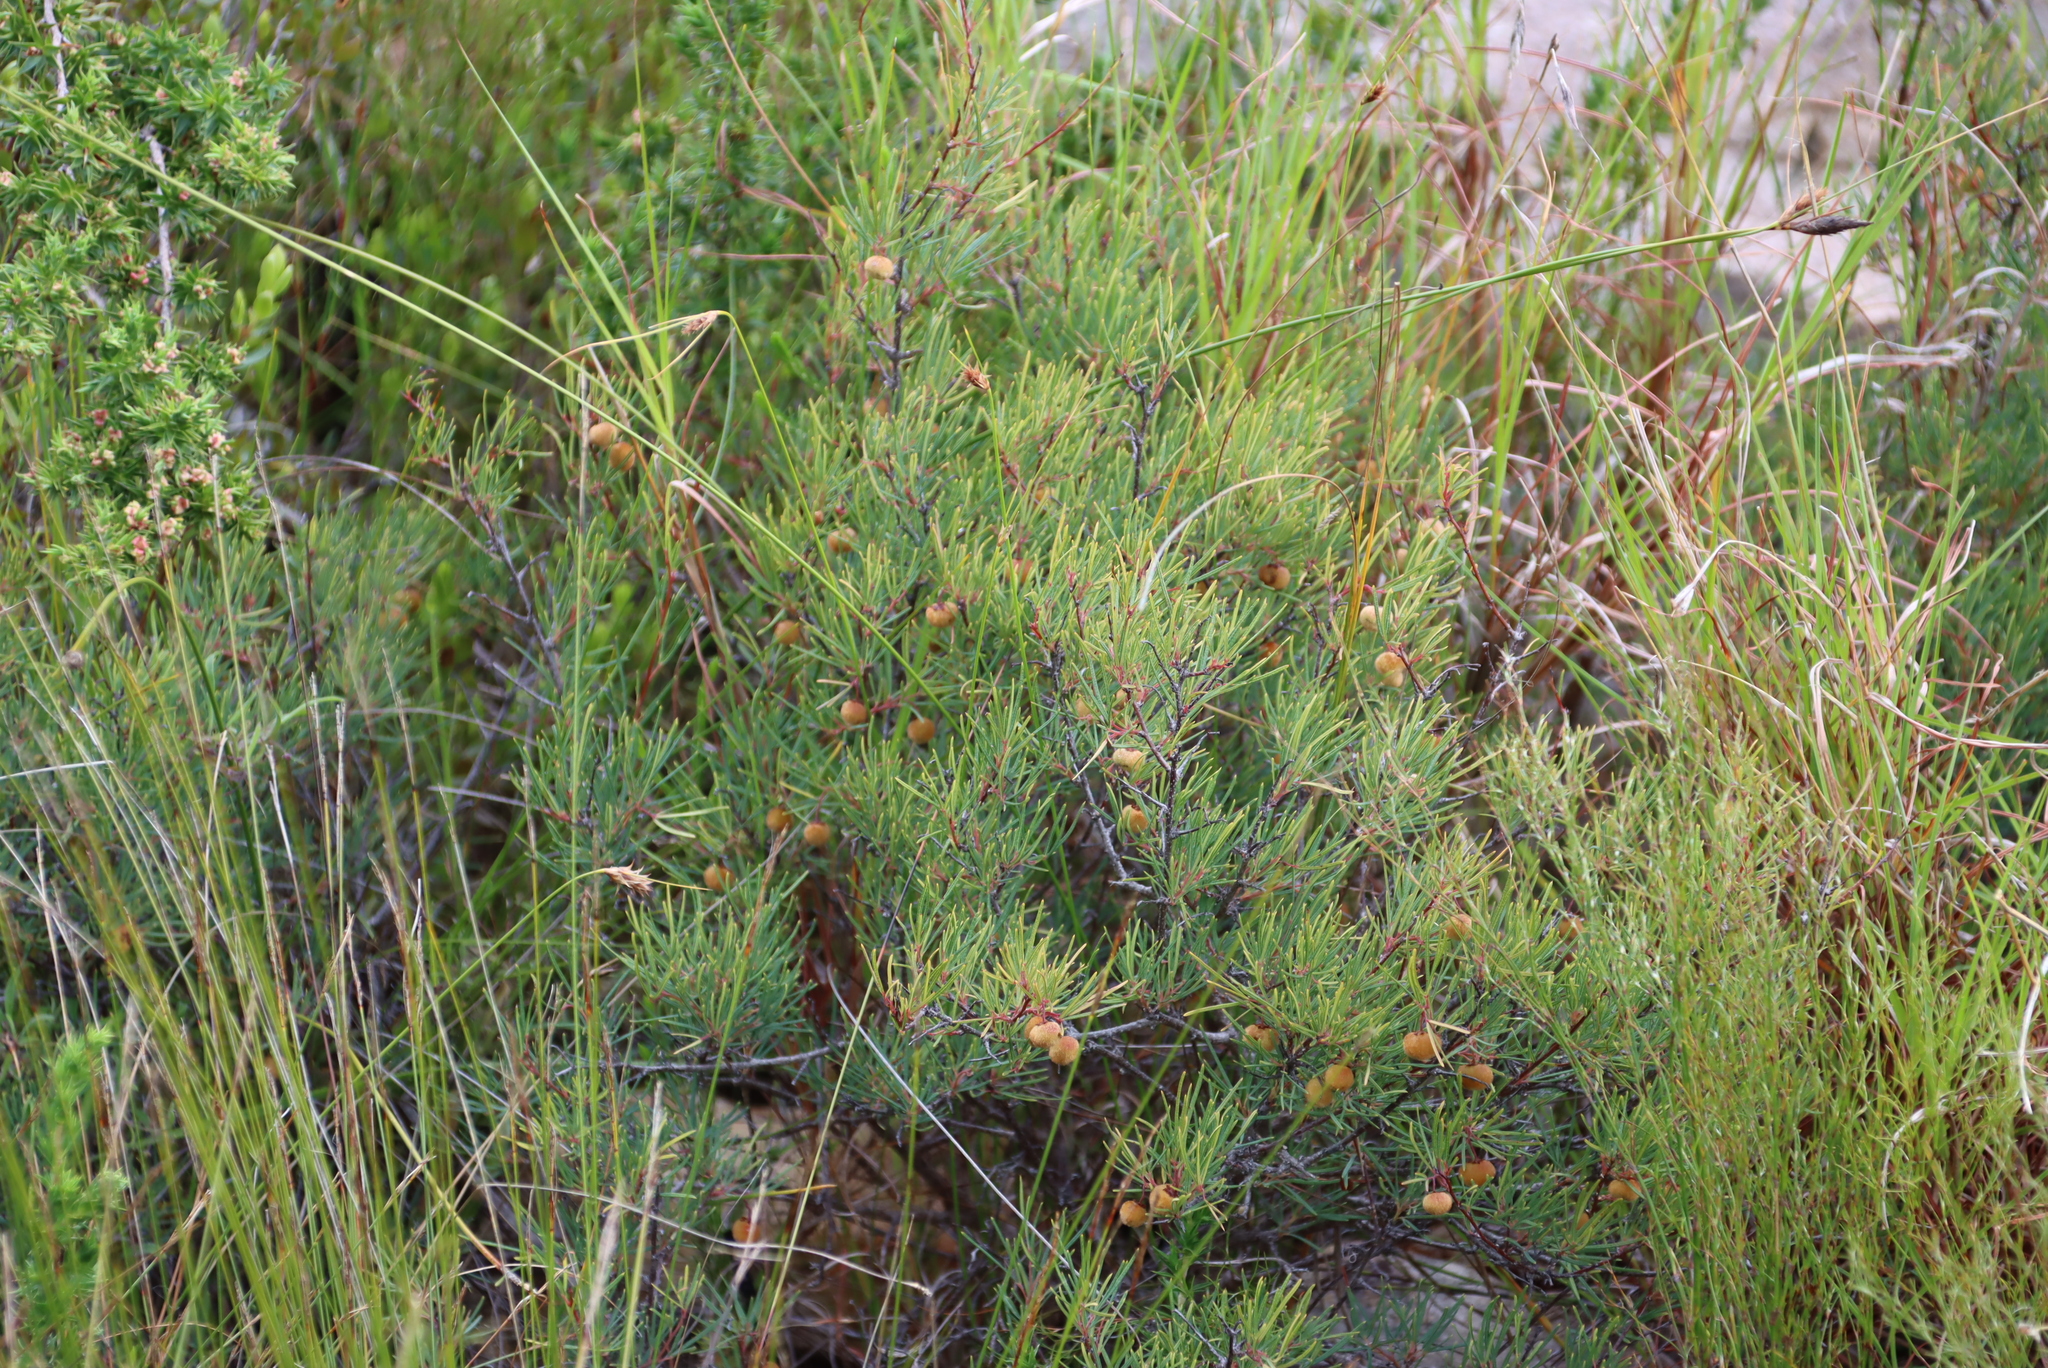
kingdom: Plantae
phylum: Tracheophyta
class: Magnoliopsida
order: Sapindales
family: Anacardiaceae
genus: Searsia
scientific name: Searsia rosmarinifolia
